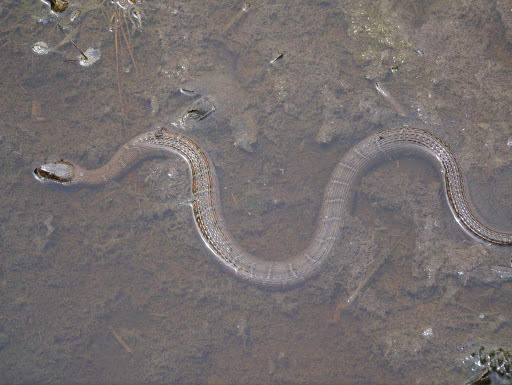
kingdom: Animalia
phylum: Chordata
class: Squamata
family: Colubridae
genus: Nerodia
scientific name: Nerodia sipedon
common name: Northern water snake
